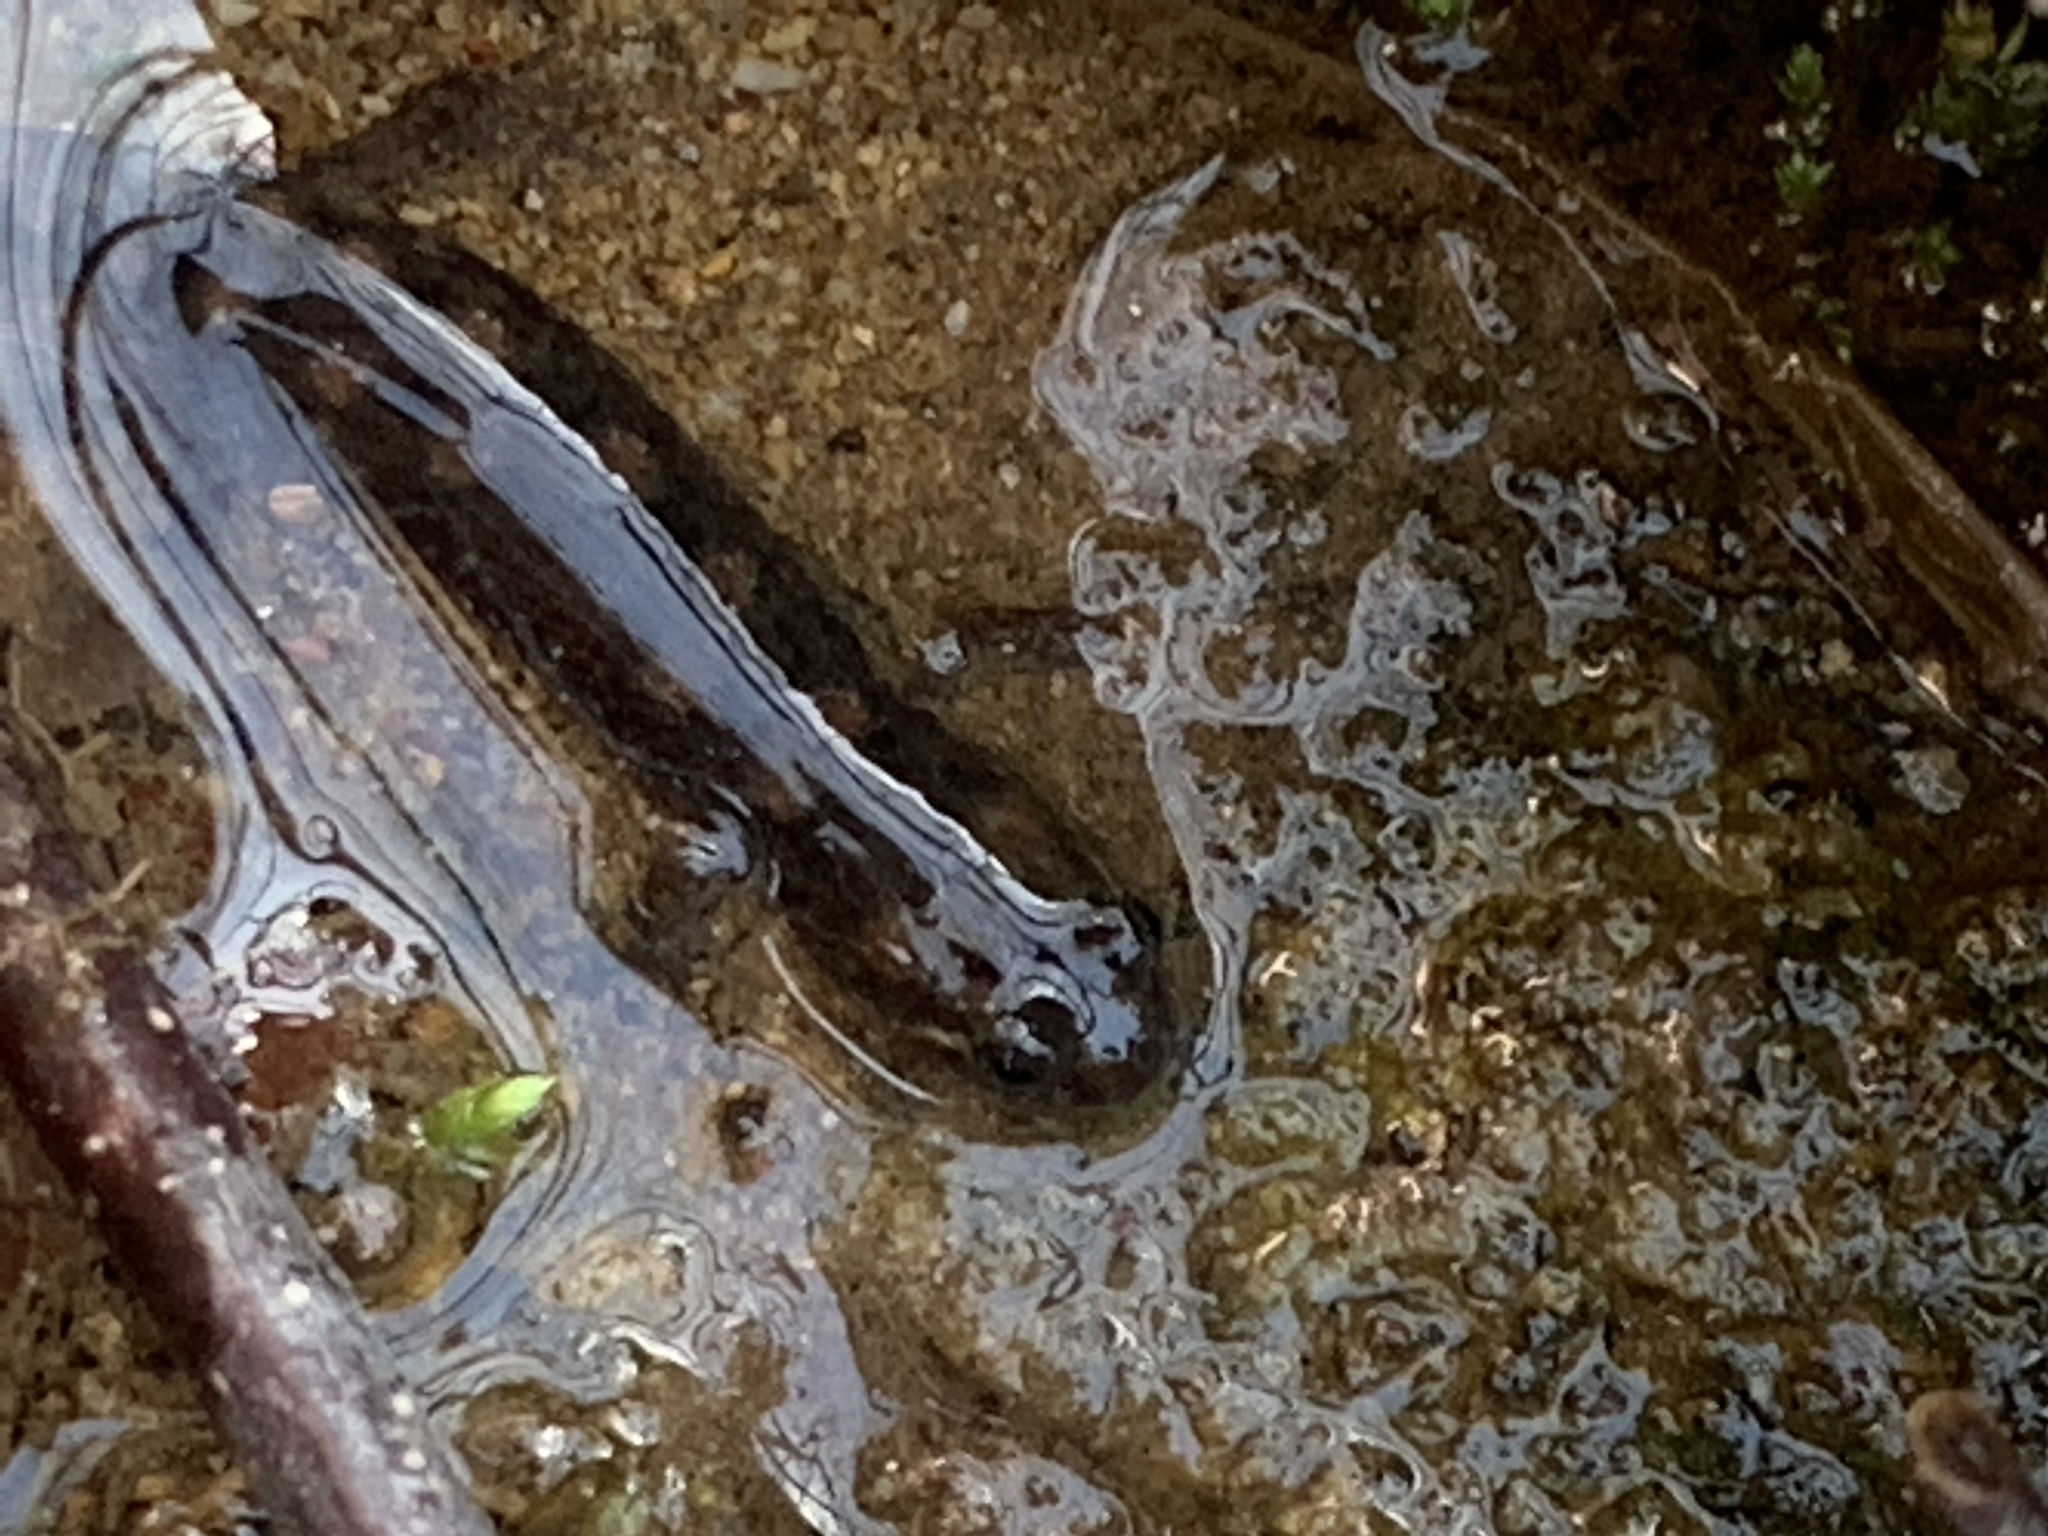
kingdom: Animalia
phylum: Chordata
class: Amphibia
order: Caudata
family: Plethodontidae
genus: Desmognathus
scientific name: Desmognathus monticola
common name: Seal salamander
